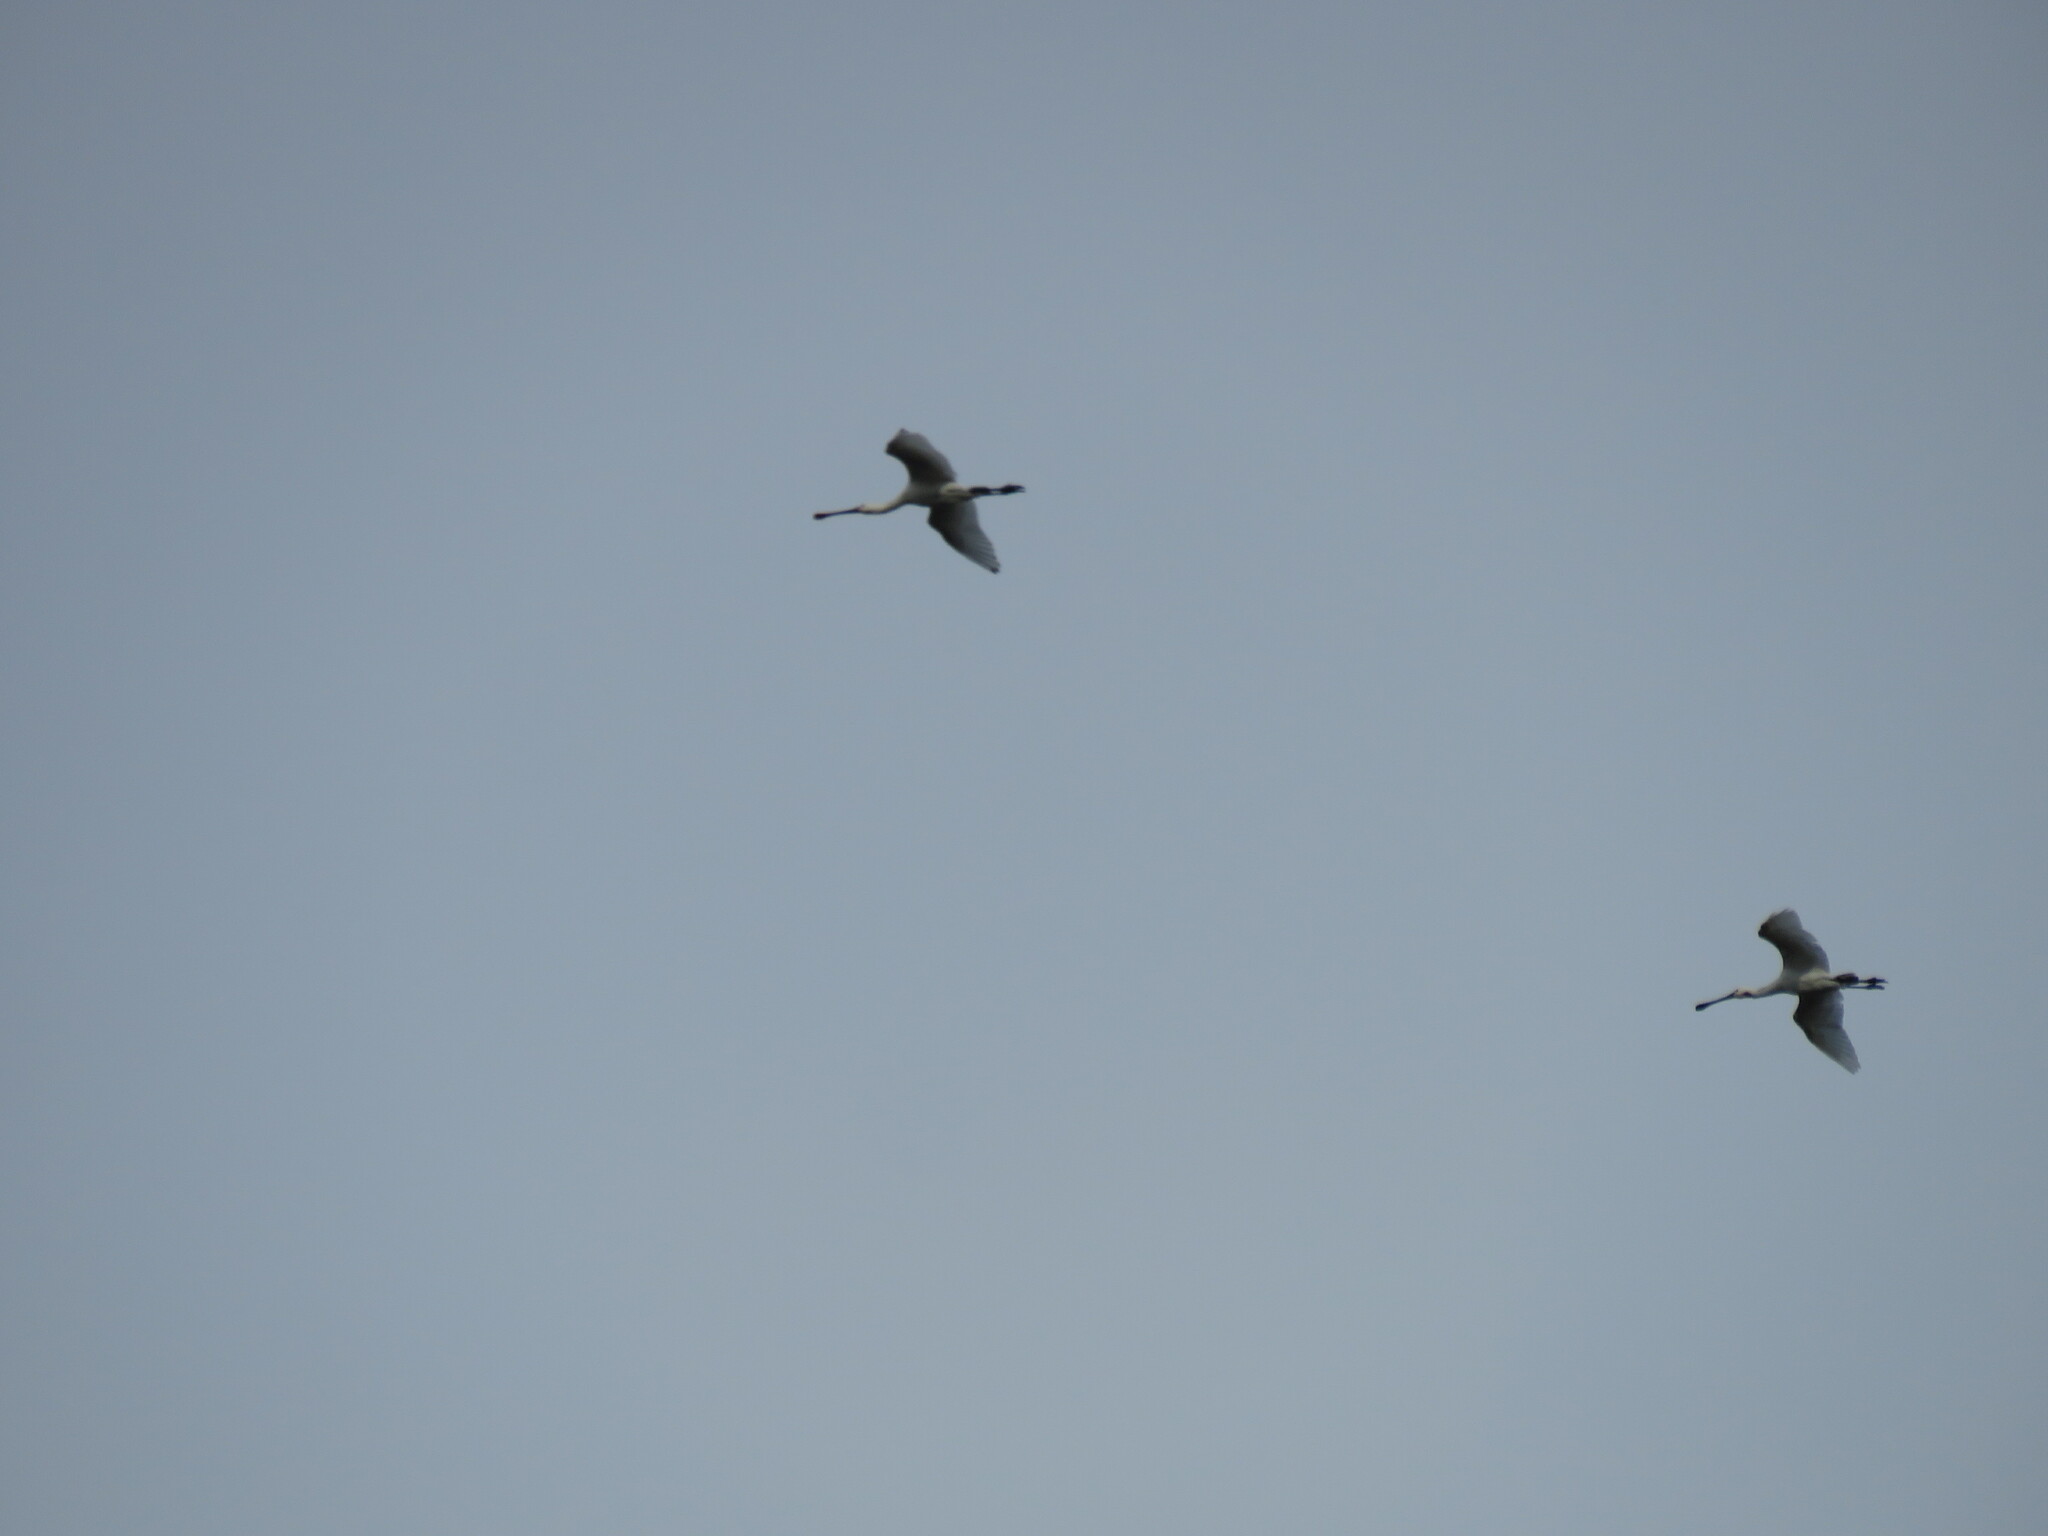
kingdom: Animalia
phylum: Chordata
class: Aves
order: Pelecaniformes
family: Threskiornithidae
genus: Platalea
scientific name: Platalea leucorodia
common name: Eurasian spoonbill
